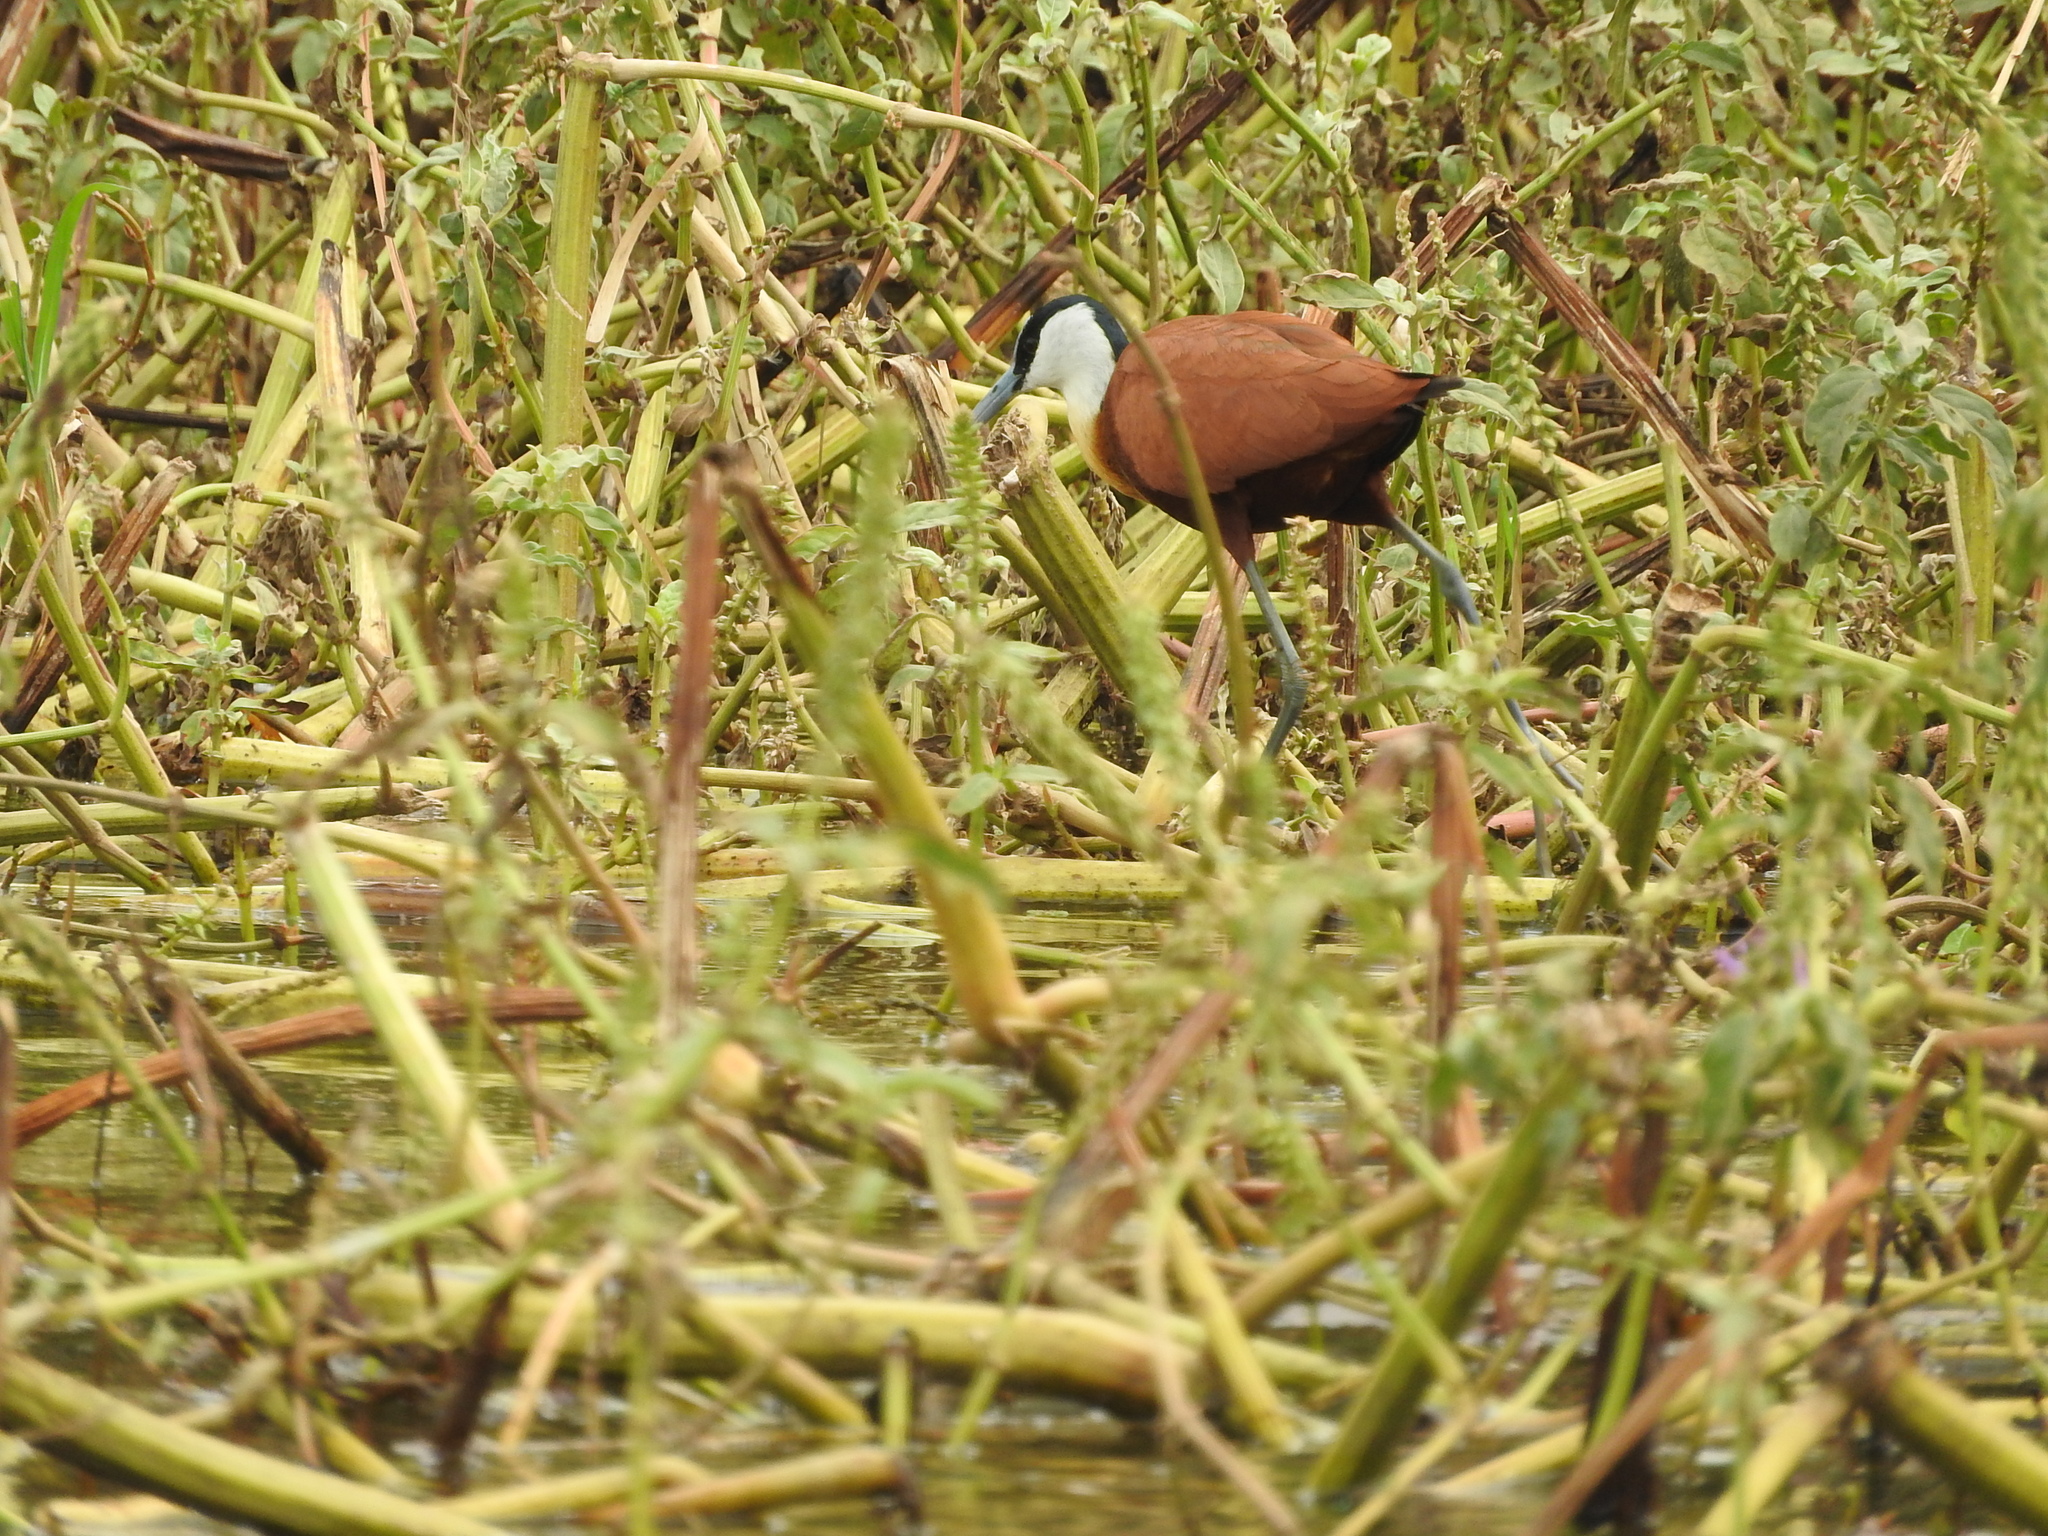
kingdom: Animalia
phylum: Chordata
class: Aves
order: Charadriiformes
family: Jacanidae
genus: Actophilornis
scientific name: Actophilornis africanus
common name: African jacana
